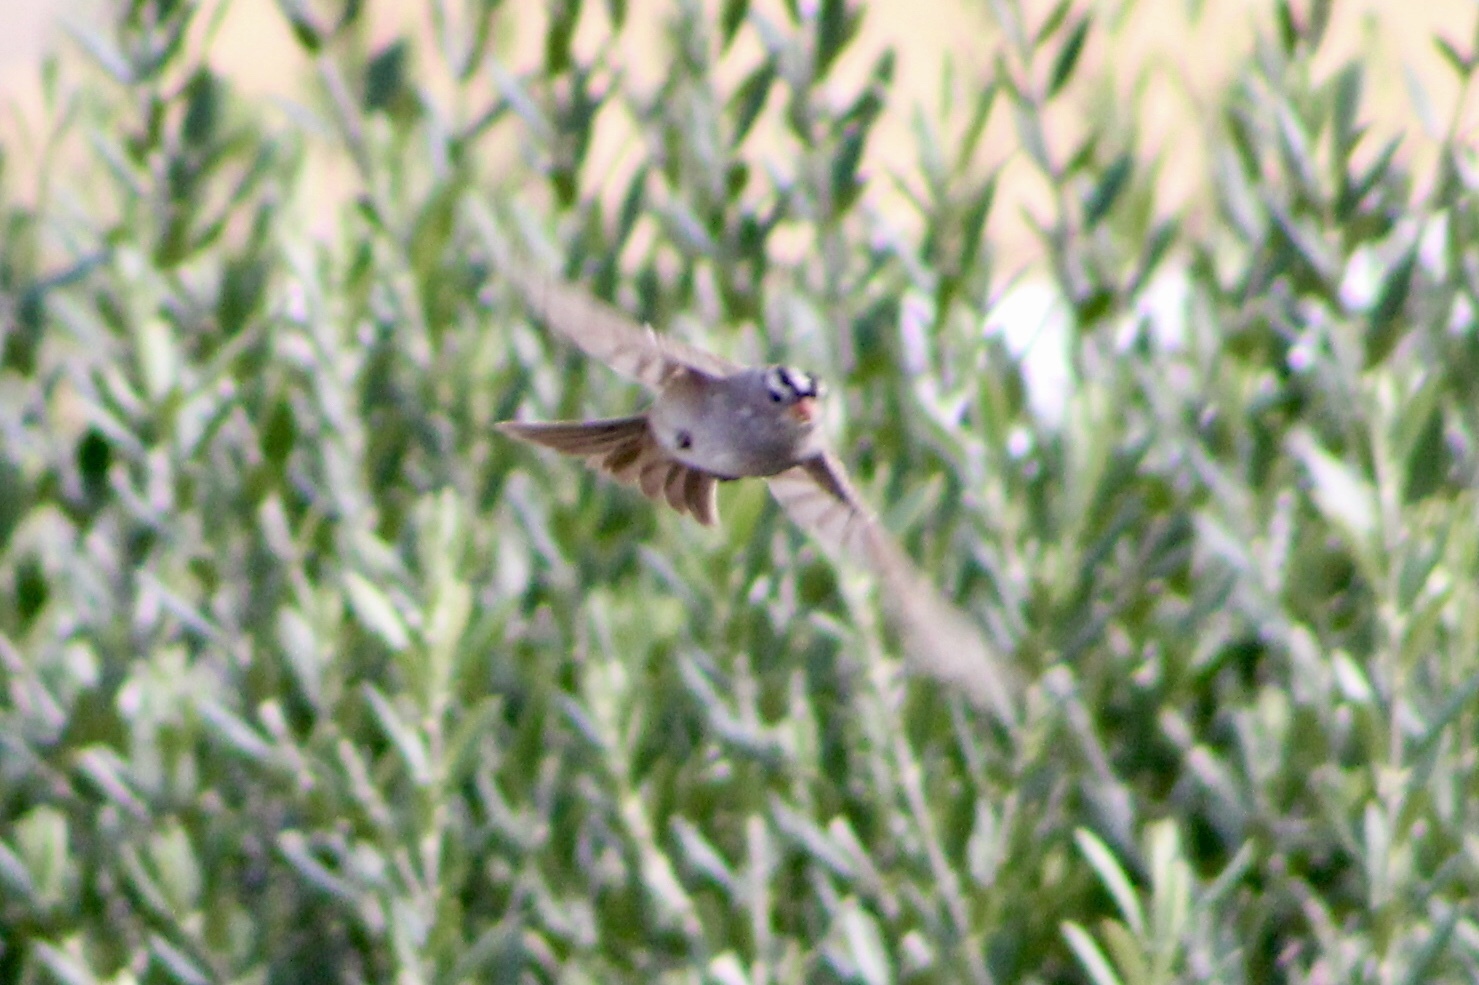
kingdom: Animalia
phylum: Chordata
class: Aves
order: Passeriformes
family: Passerellidae
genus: Zonotrichia
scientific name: Zonotrichia leucophrys
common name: White-crowned sparrow
